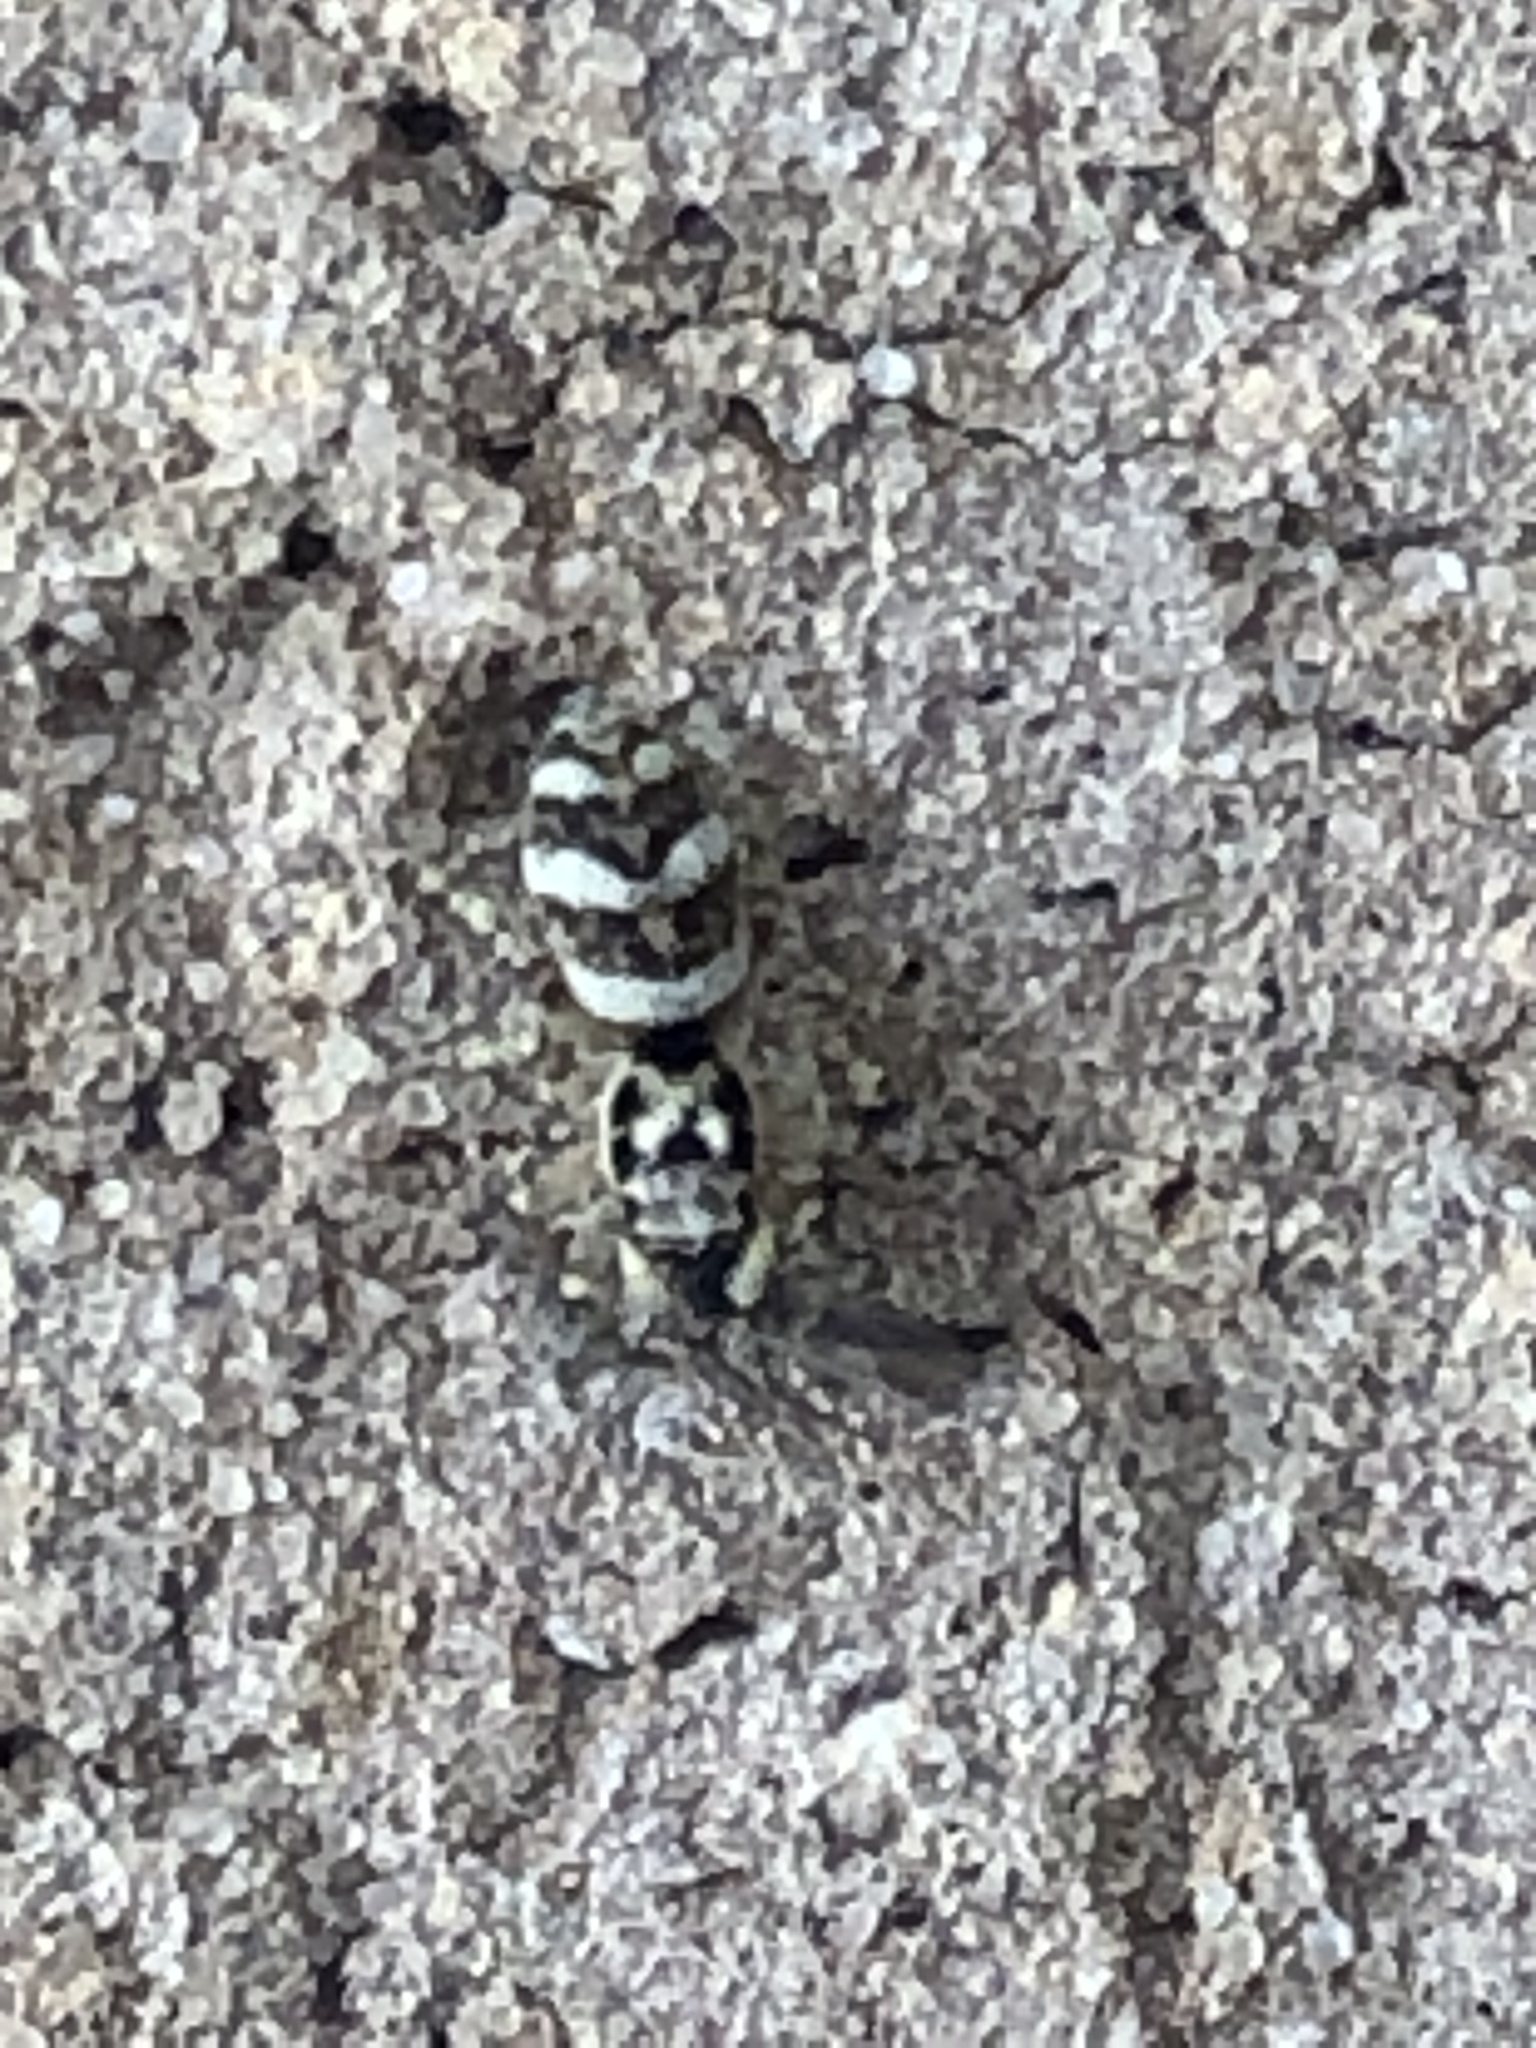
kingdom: Animalia
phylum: Arthropoda
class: Arachnida
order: Araneae
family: Salticidae
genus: Salticus
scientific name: Salticus scenicus
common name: Zebra jumper
